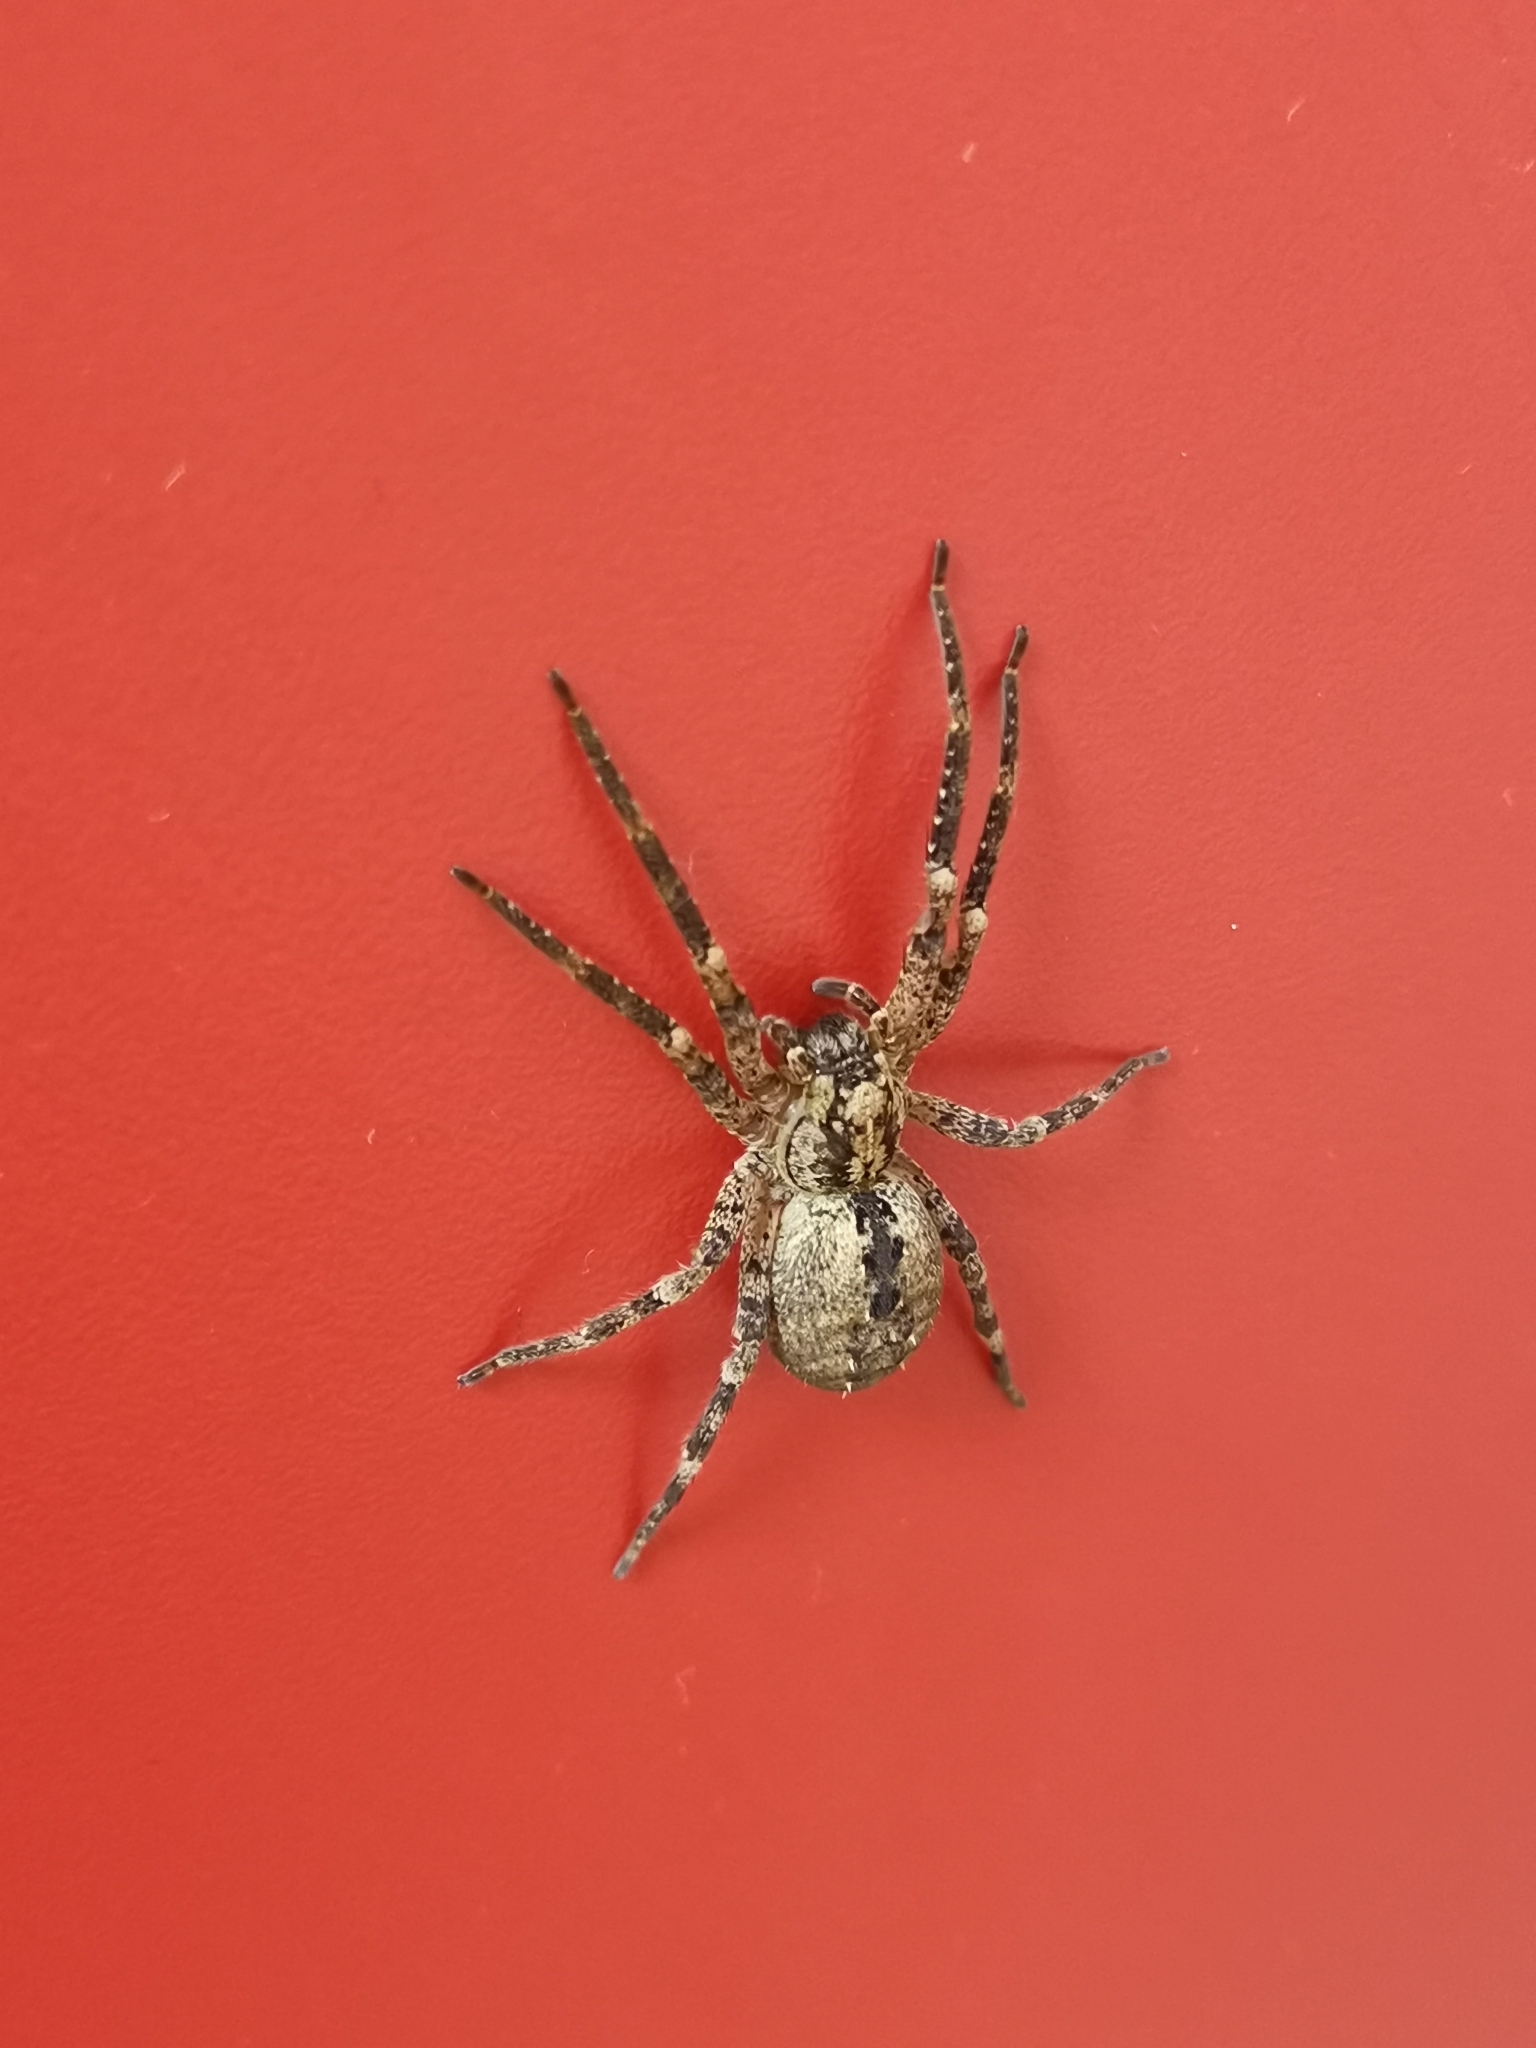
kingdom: Animalia
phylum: Arthropoda
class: Arachnida
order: Araneae
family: Zoropsidae
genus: Zoropsis
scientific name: Zoropsis spinimana
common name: Zoropsid spider
